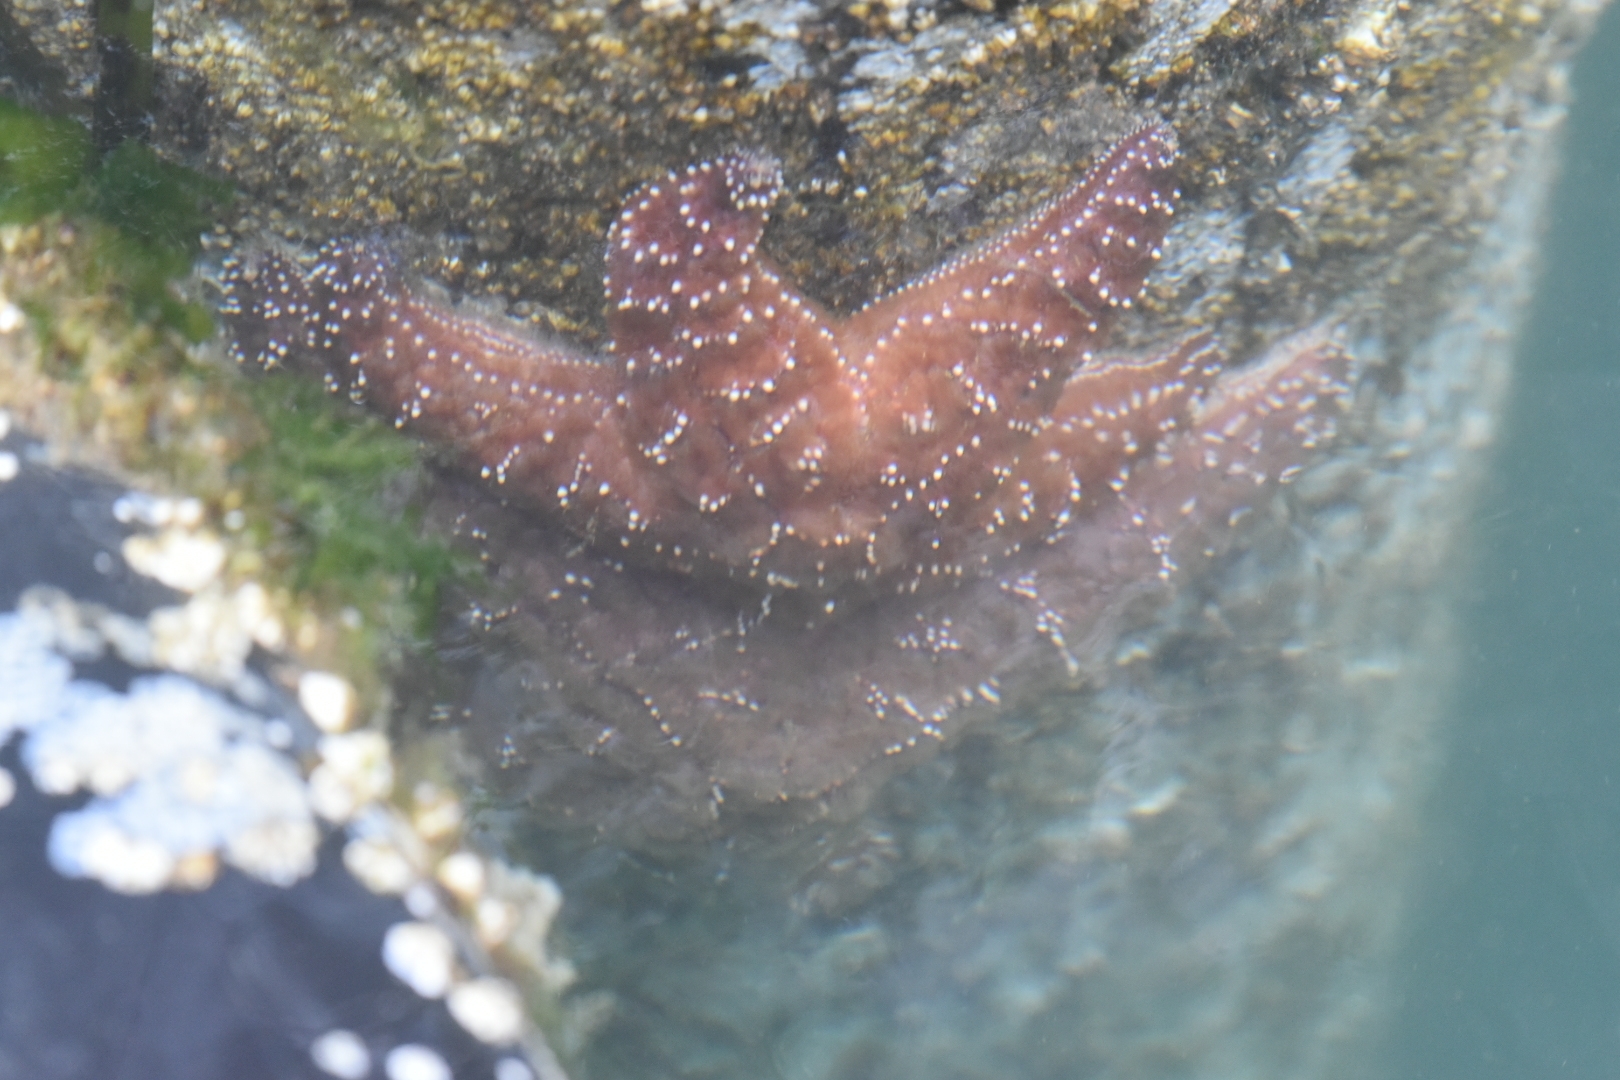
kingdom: Animalia
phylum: Echinodermata
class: Asteroidea
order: Forcipulatida
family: Asteriidae
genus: Pisaster
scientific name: Pisaster ochraceus
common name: Ochre stars
